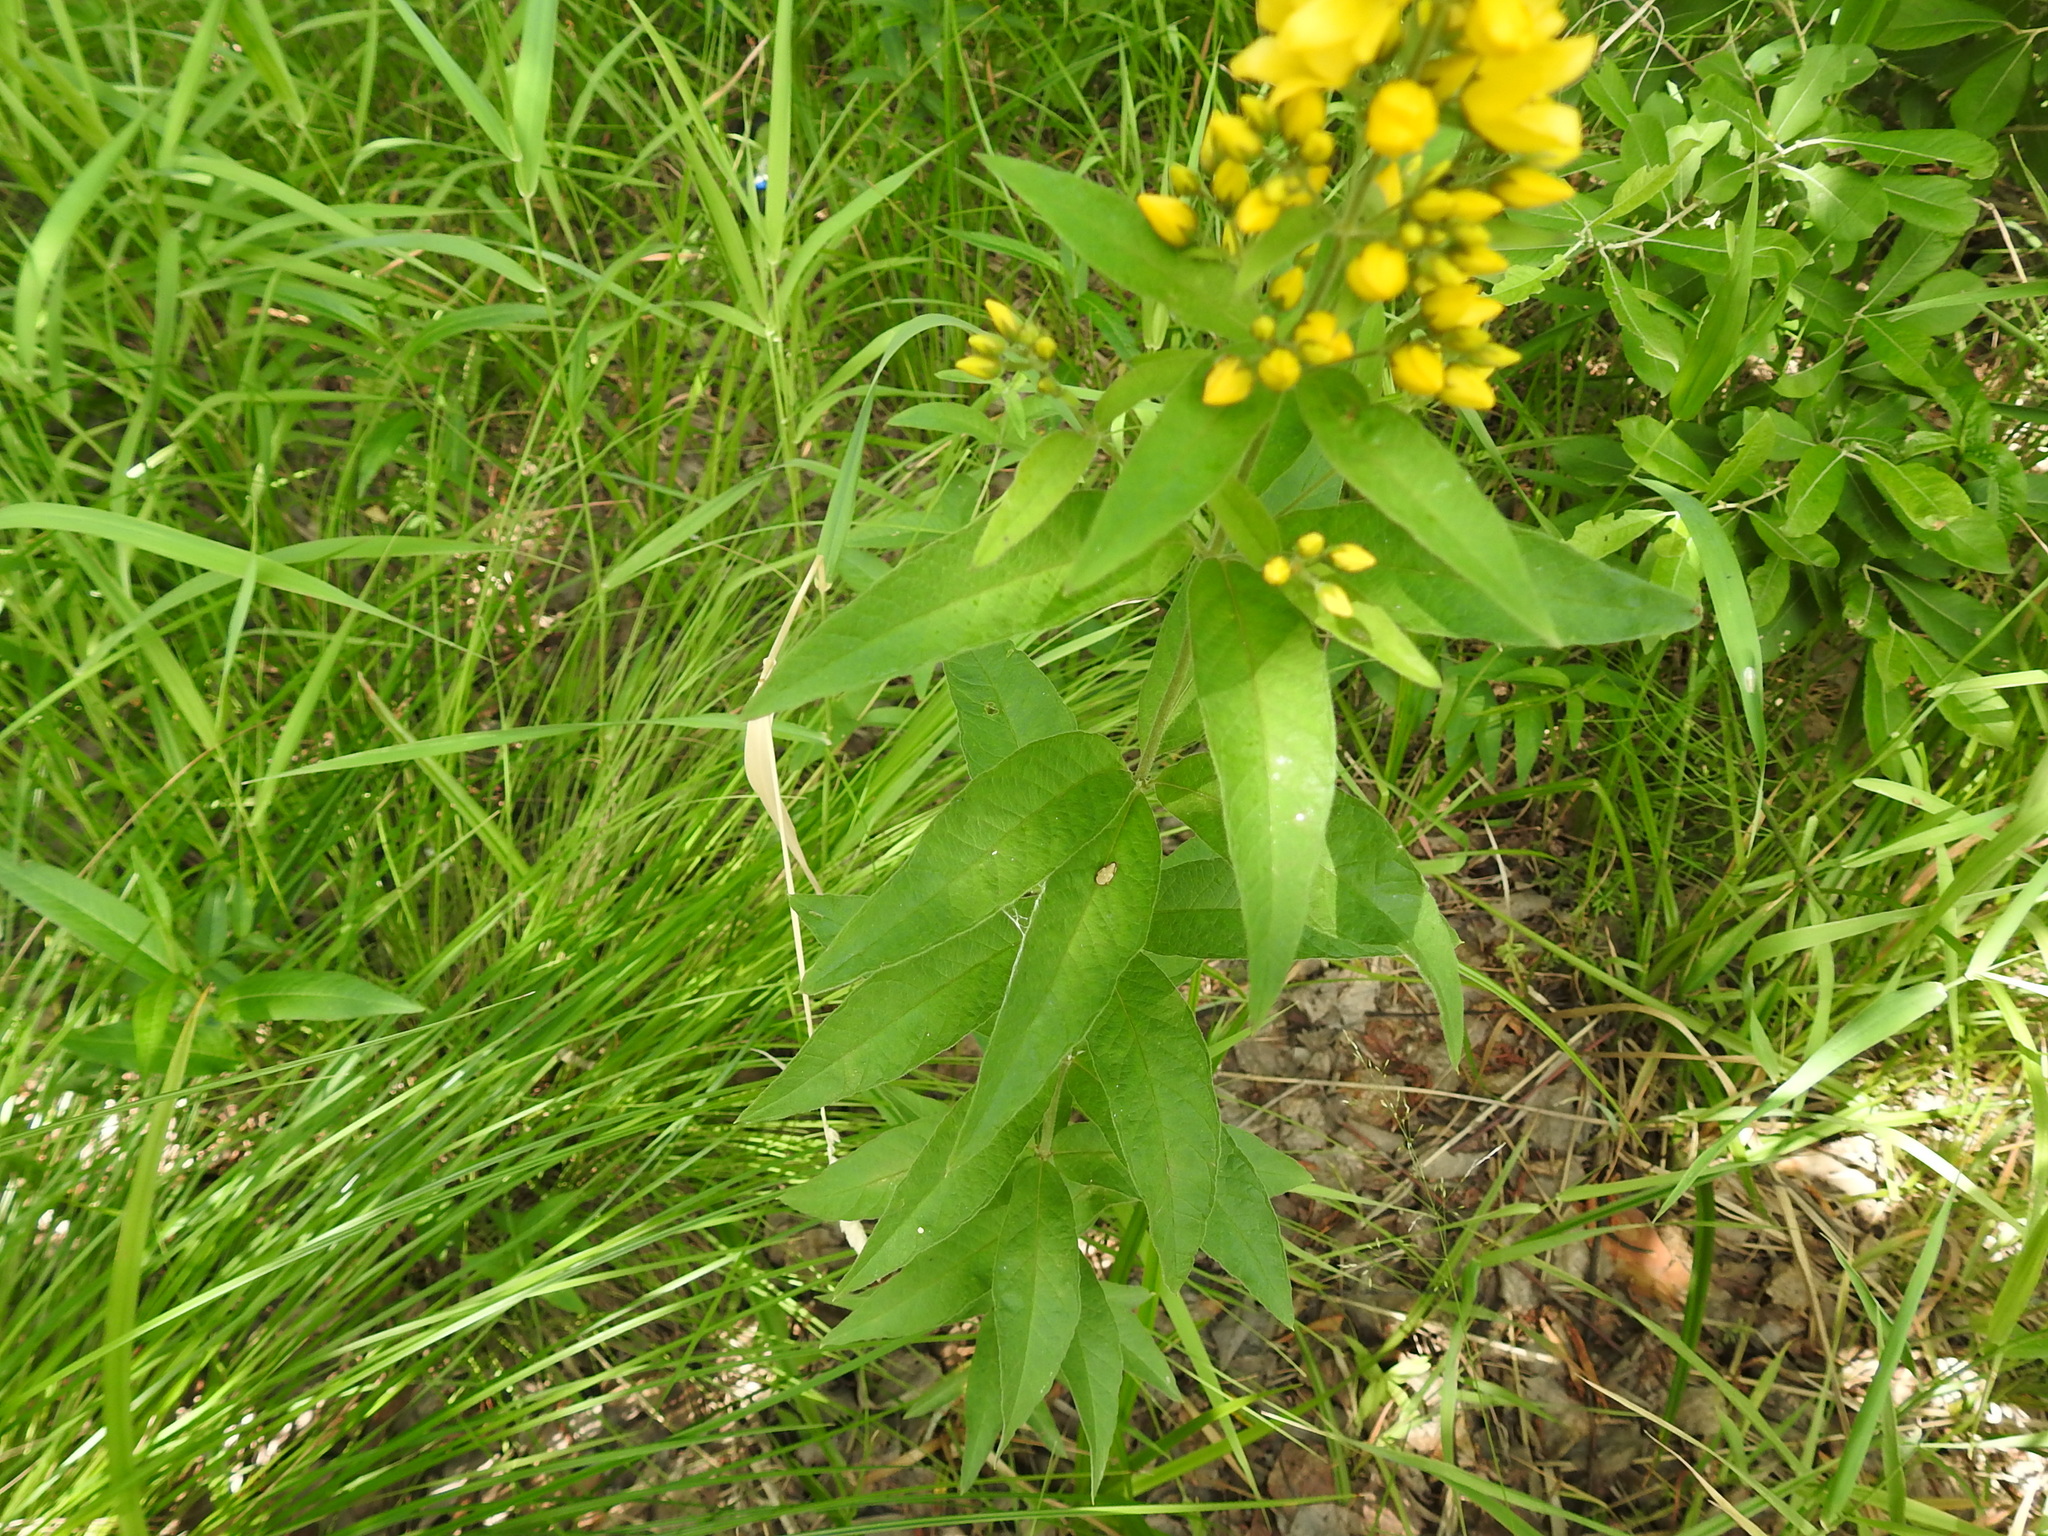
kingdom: Plantae
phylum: Tracheophyta
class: Magnoliopsida
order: Ericales
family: Primulaceae
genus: Lysimachia
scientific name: Lysimachia vulgaris
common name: Yellow loosestrife
